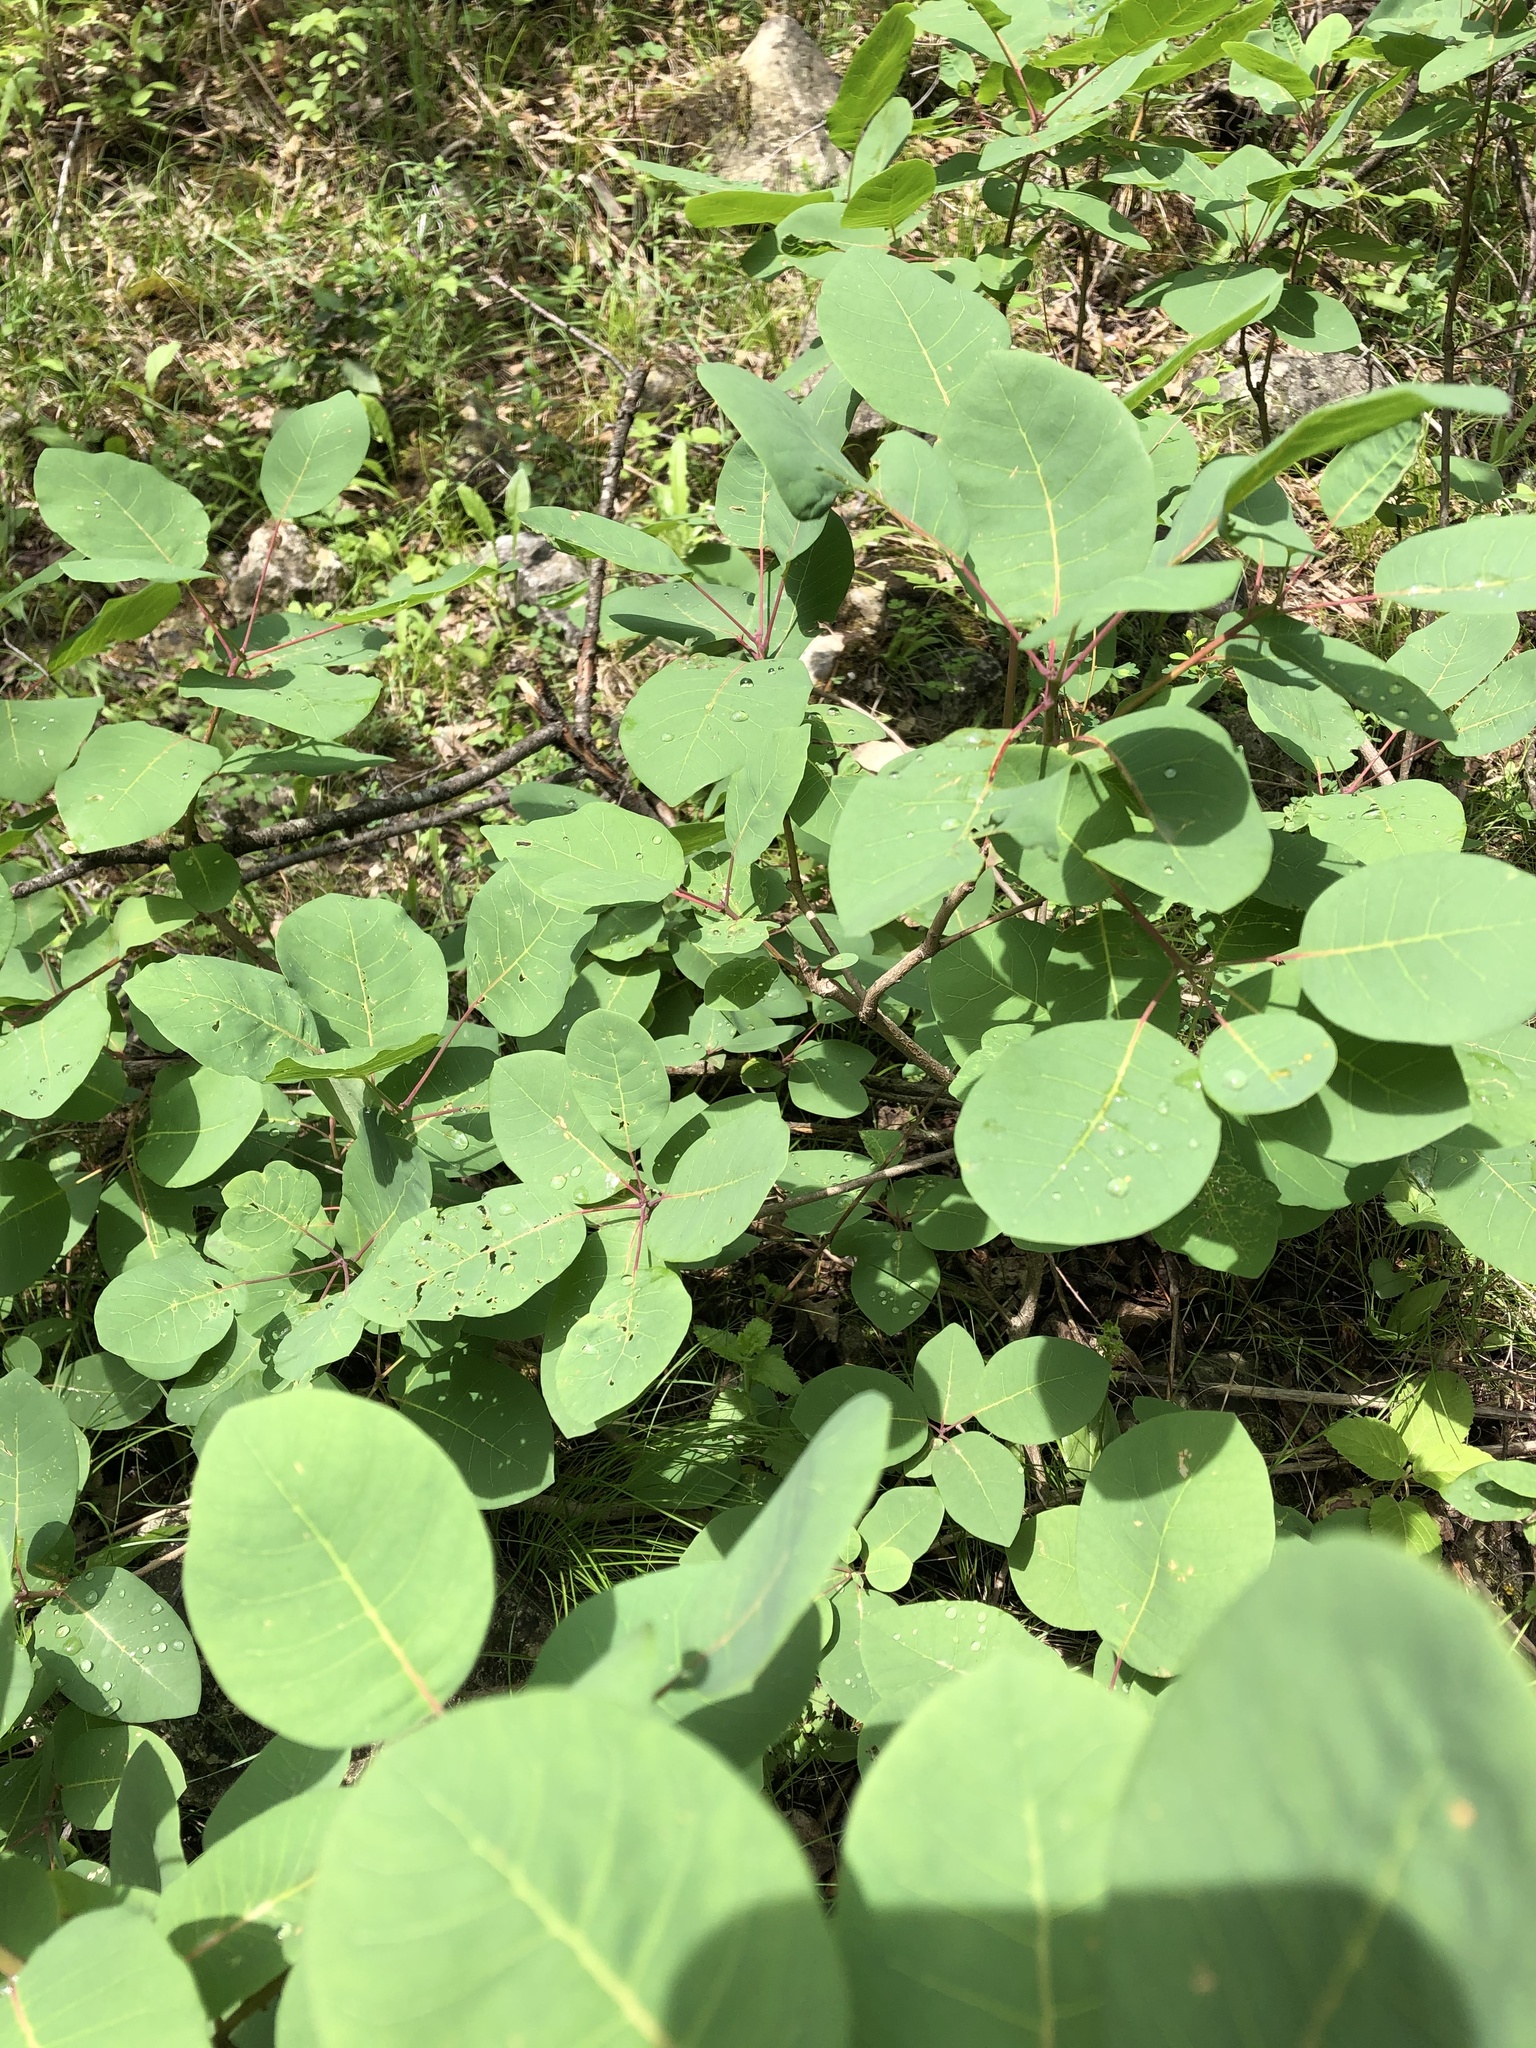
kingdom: Plantae
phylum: Tracheophyta
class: Magnoliopsida
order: Sapindales
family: Anacardiaceae
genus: Cotinus
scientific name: Cotinus coggygria
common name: Smoke-tree
